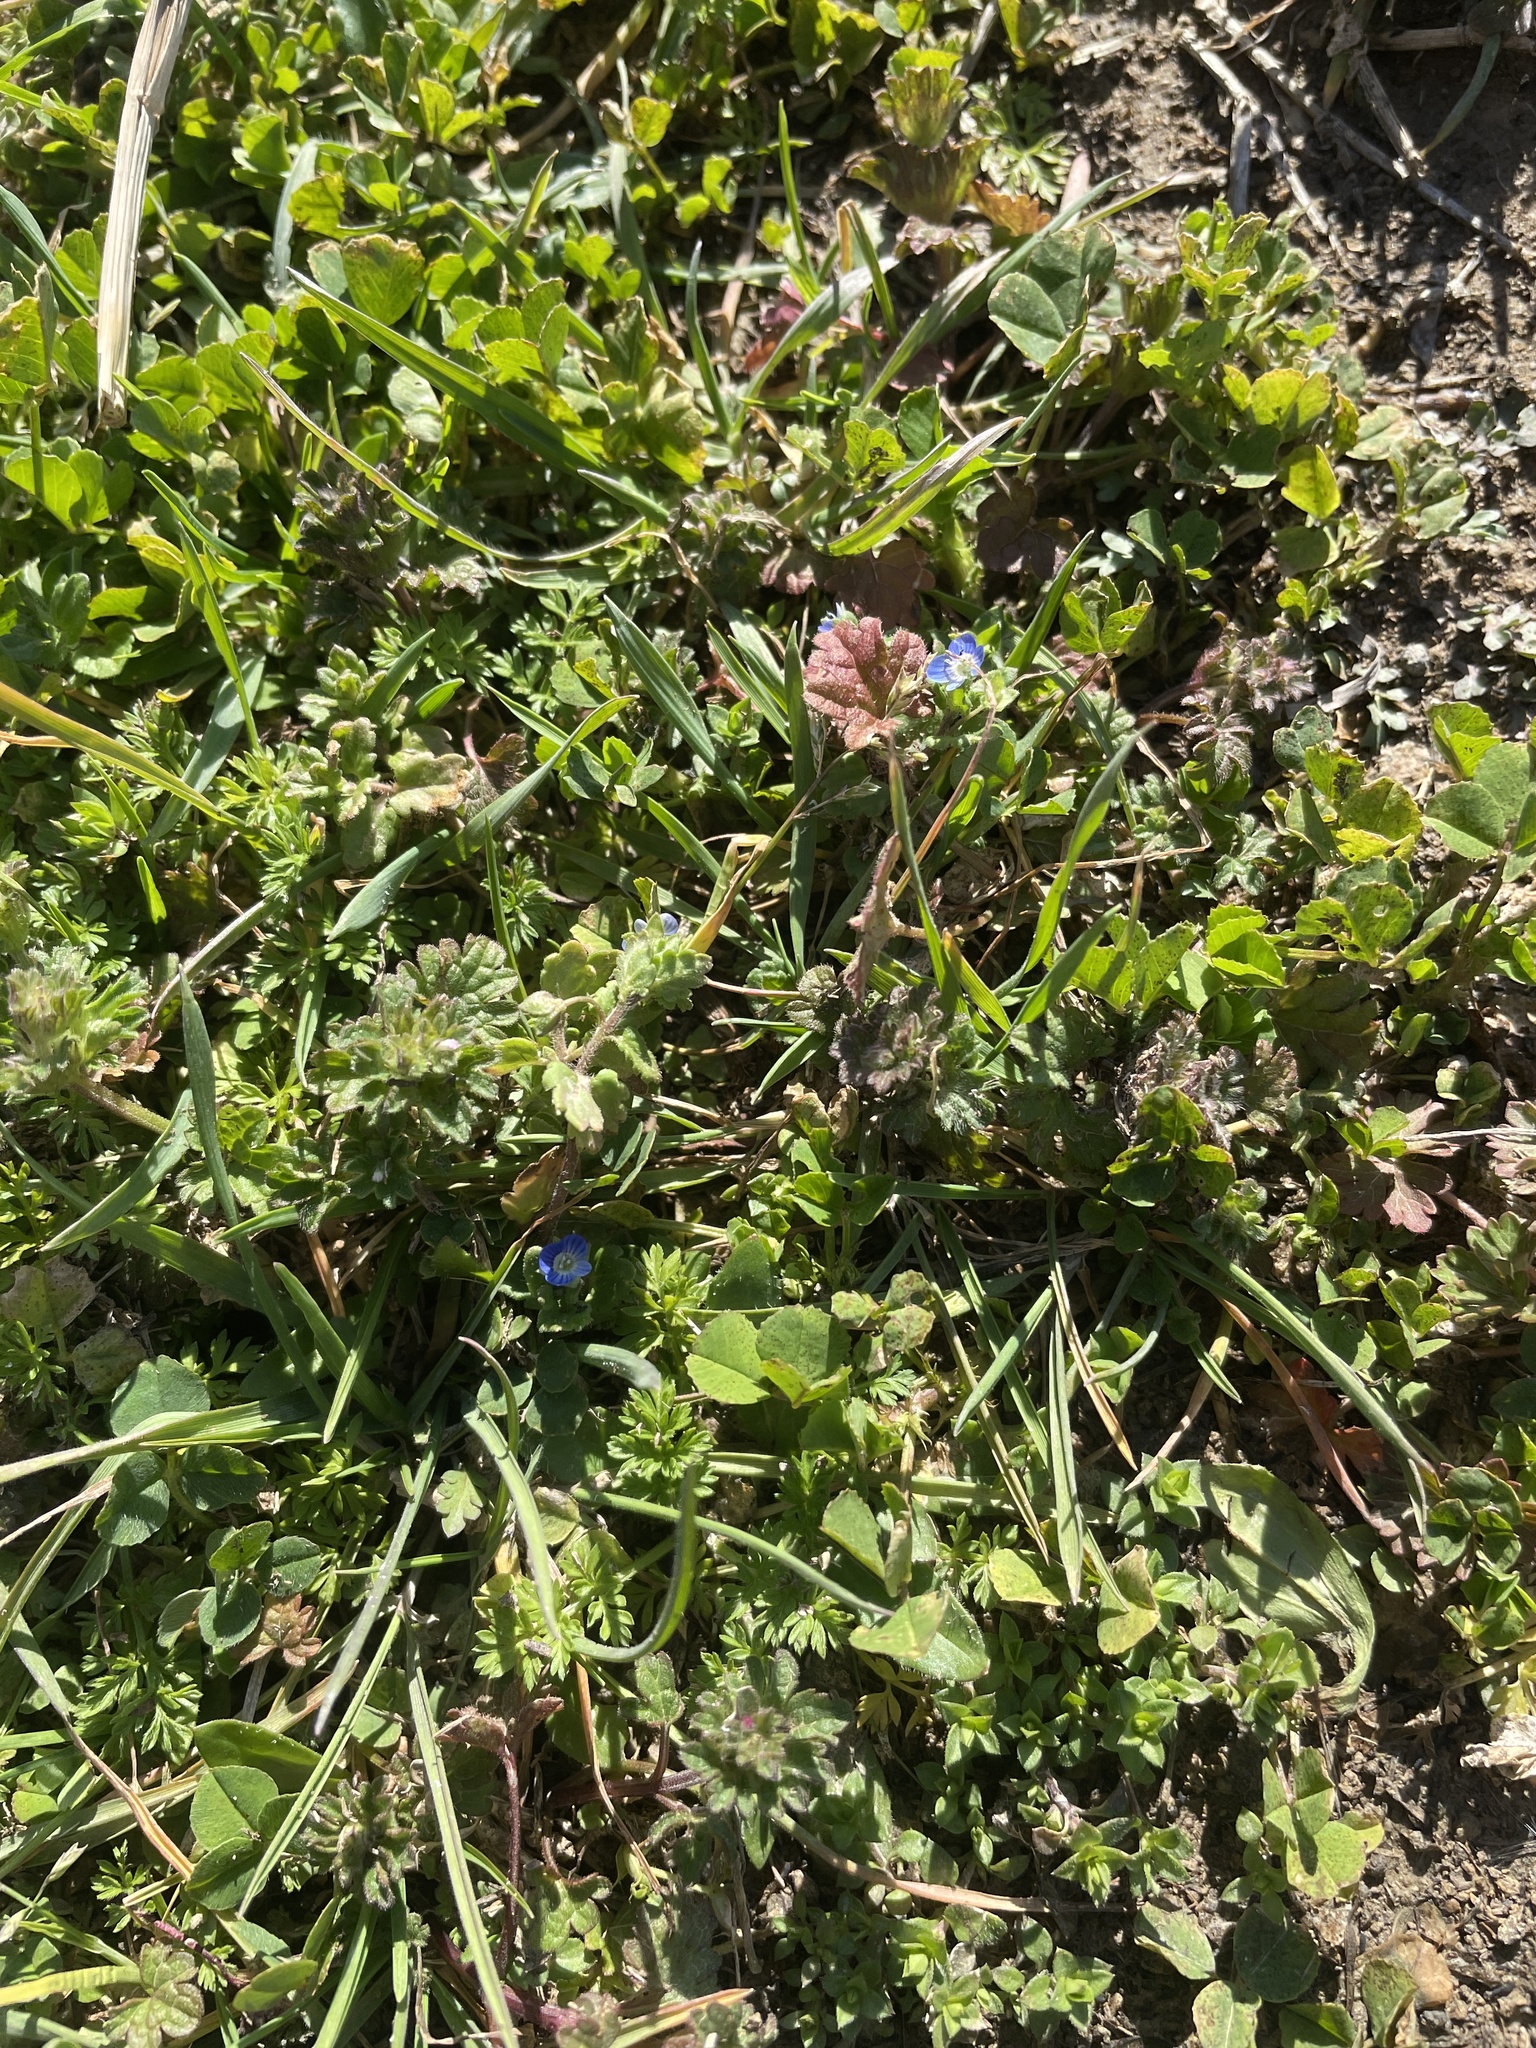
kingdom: Plantae
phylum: Tracheophyta
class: Magnoliopsida
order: Lamiales
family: Plantaginaceae
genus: Veronica
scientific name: Veronica polita
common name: Grey field-speedwell
